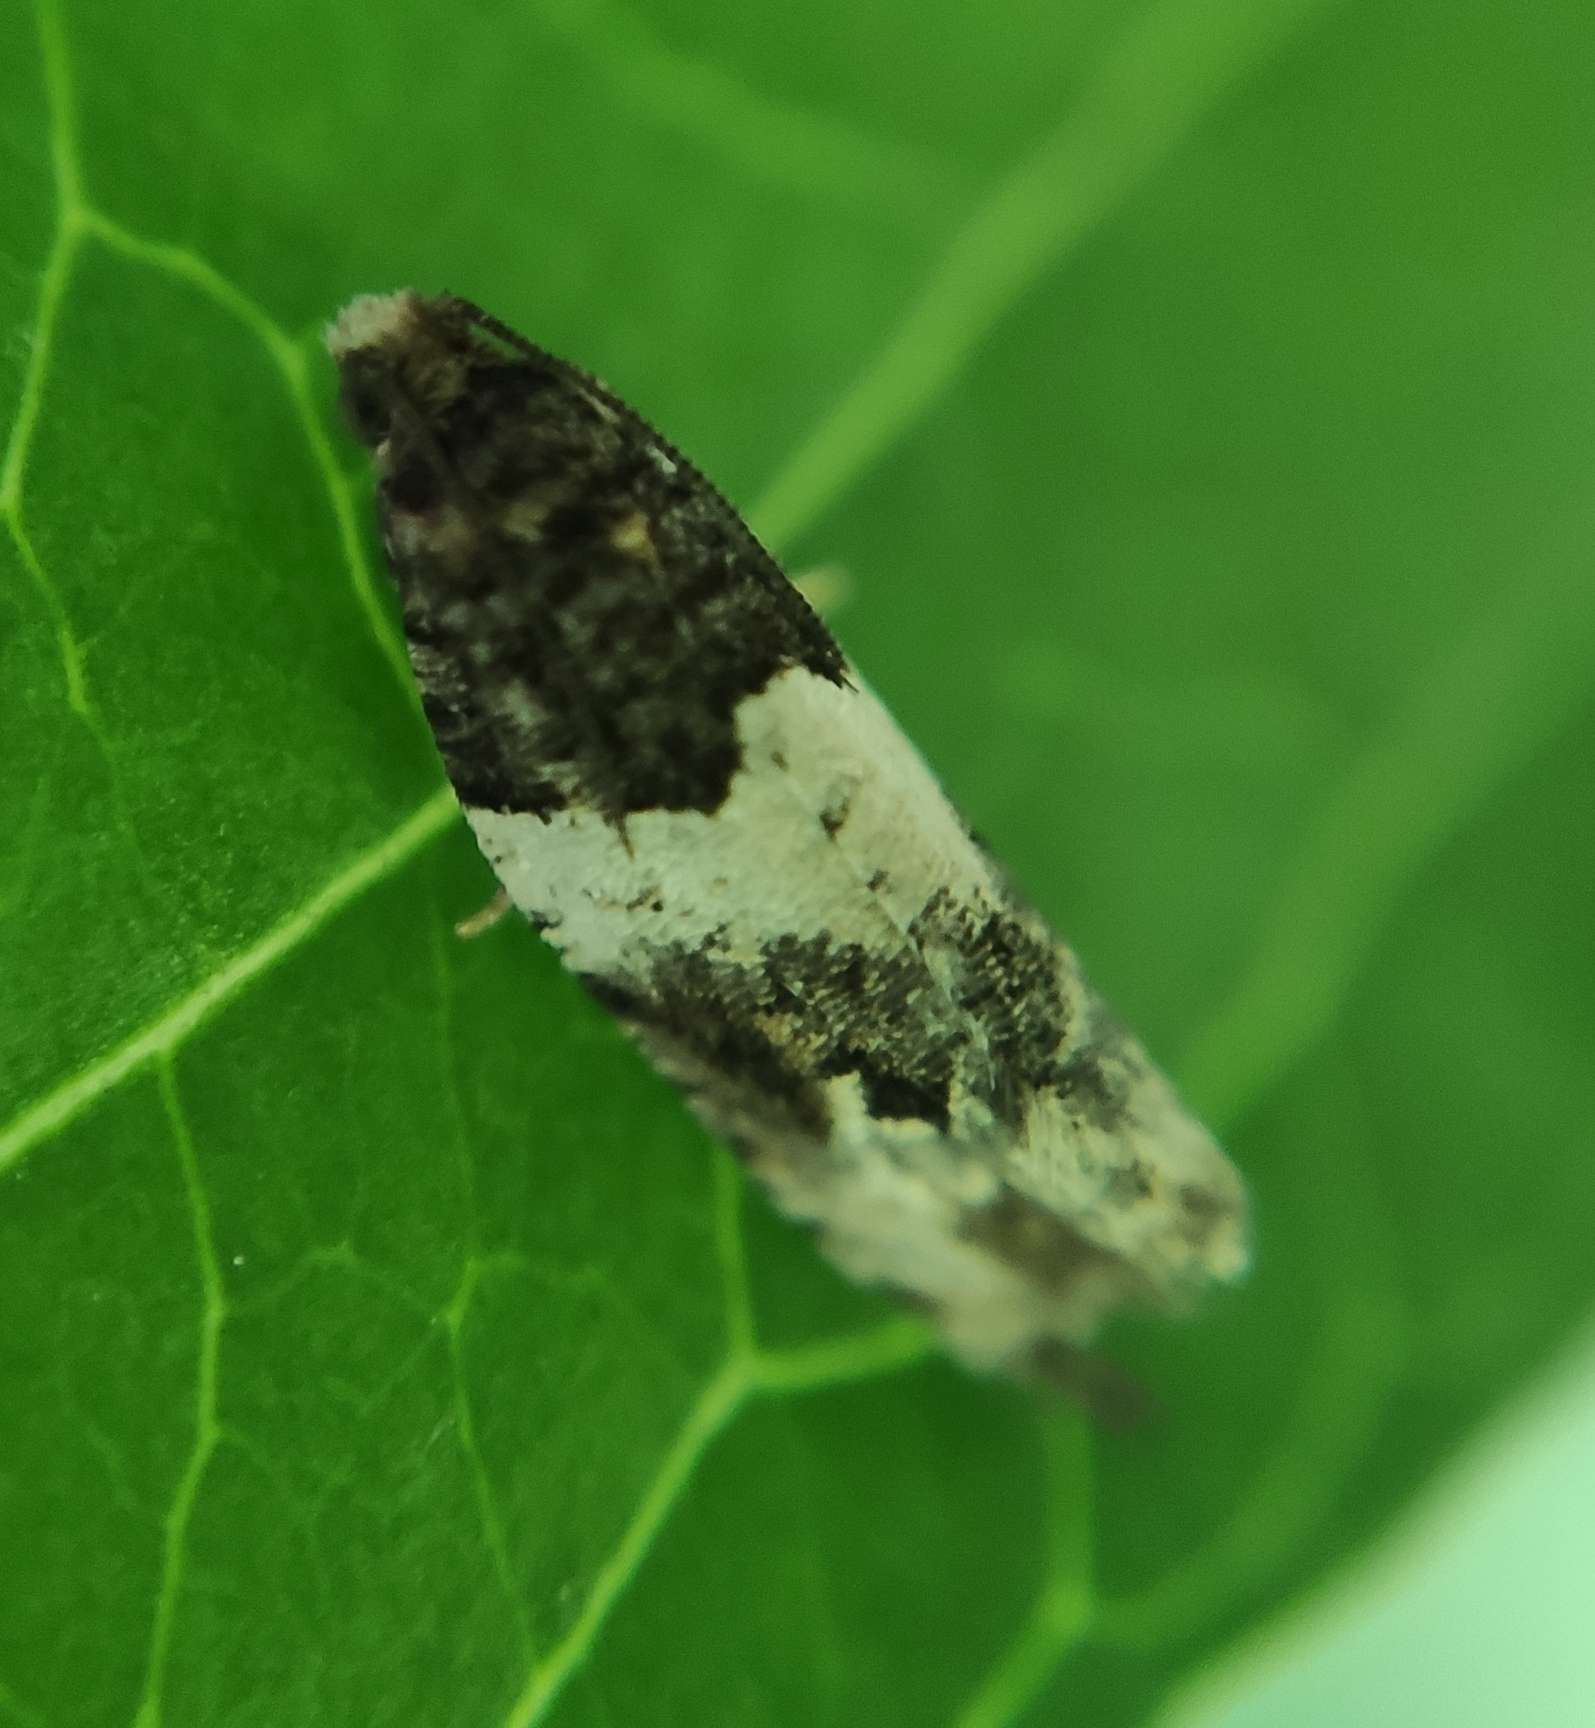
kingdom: Animalia
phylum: Arthropoda
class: Insecta
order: Lepidoptera
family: Tortricidae
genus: Gypsonoma
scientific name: Gypsonoma sociana
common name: White cloaked shoot
